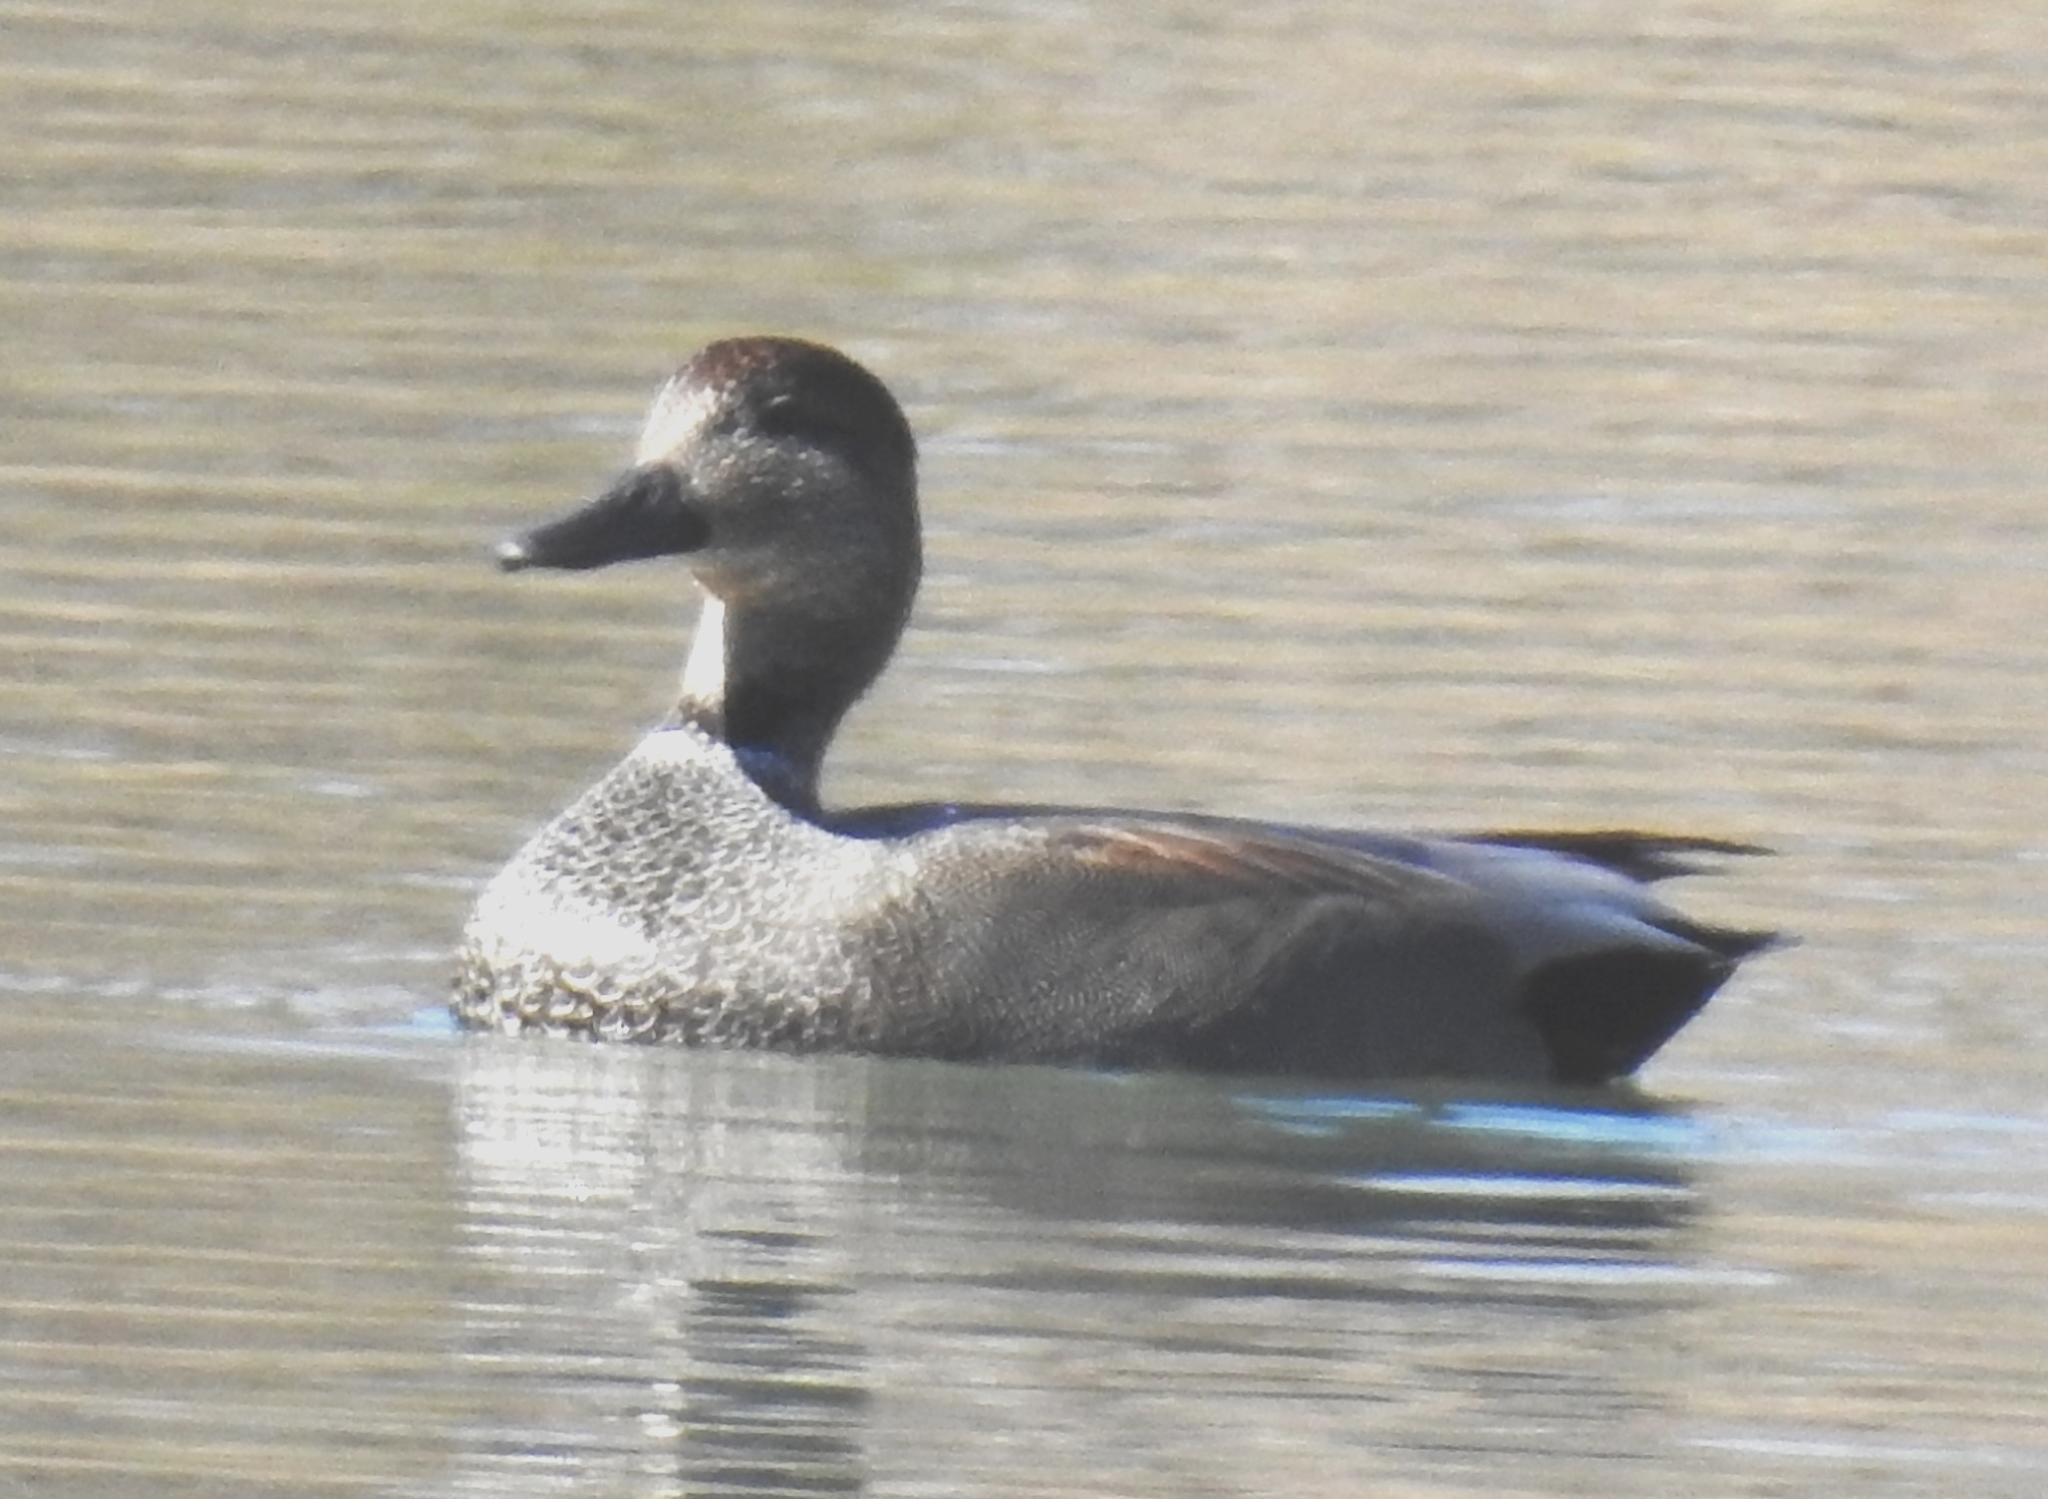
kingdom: Animalia
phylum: Chordata
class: Aves
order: Anseriformes
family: Anatidae
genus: Mareca
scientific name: Mareca strepera
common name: Gadwall
